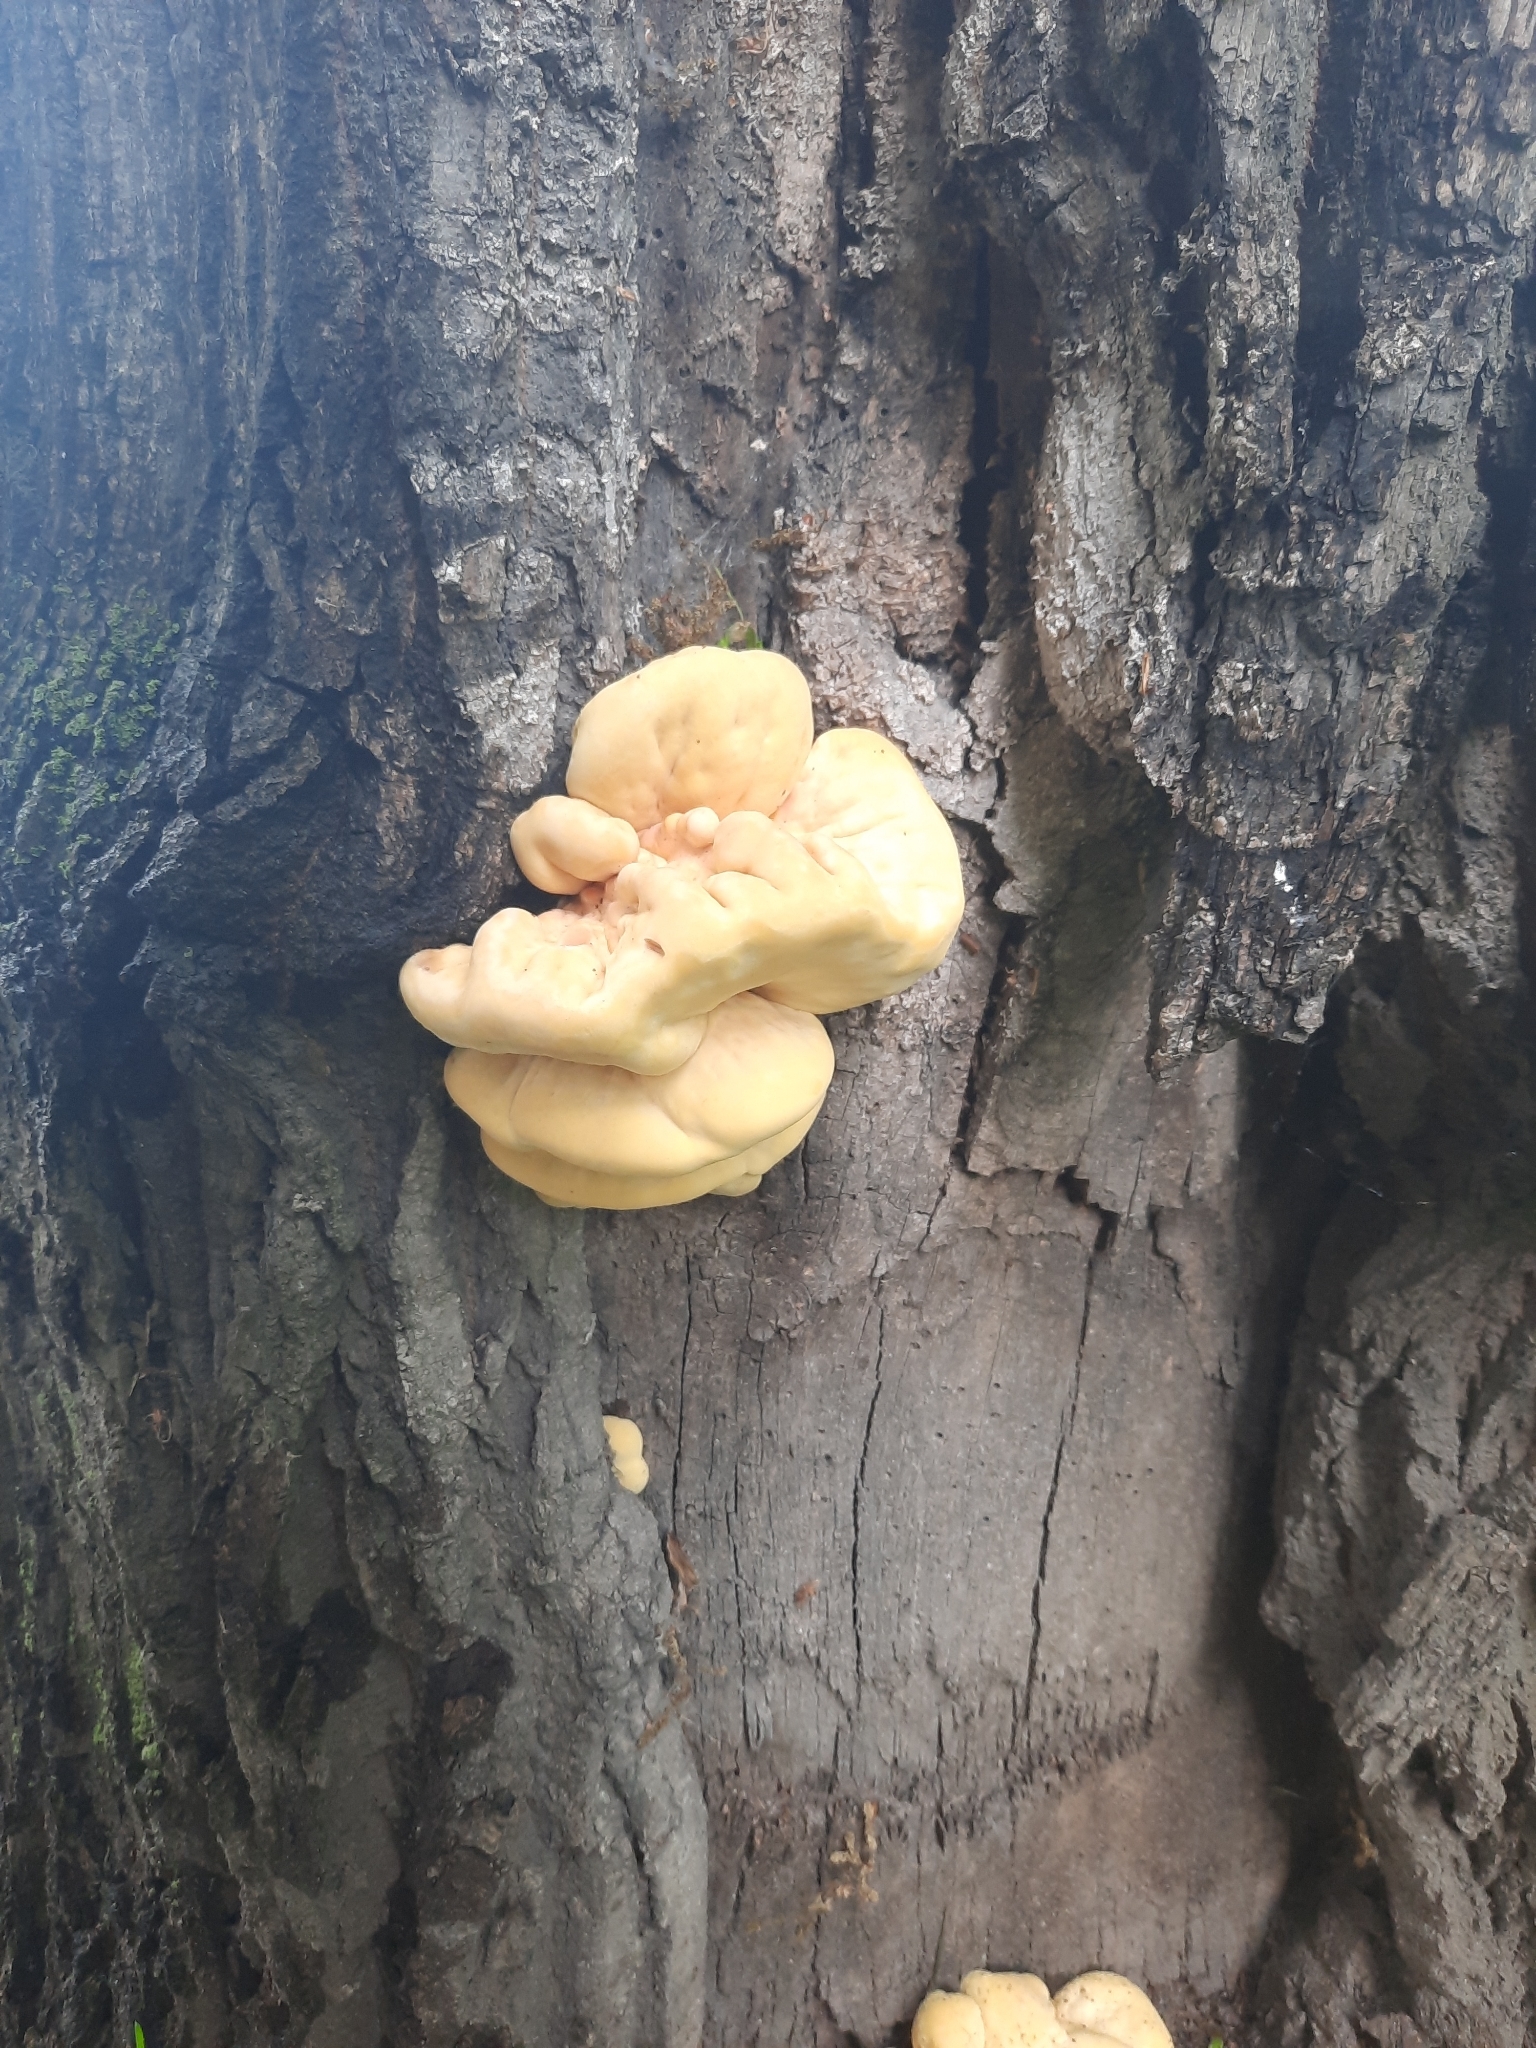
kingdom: Fungi
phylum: Basidiomycota
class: Agaricomycetes
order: Polyporales
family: Laetiporaceae
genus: Laetiporus
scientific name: Laetiporus sulphureus
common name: Chicken of the woods
